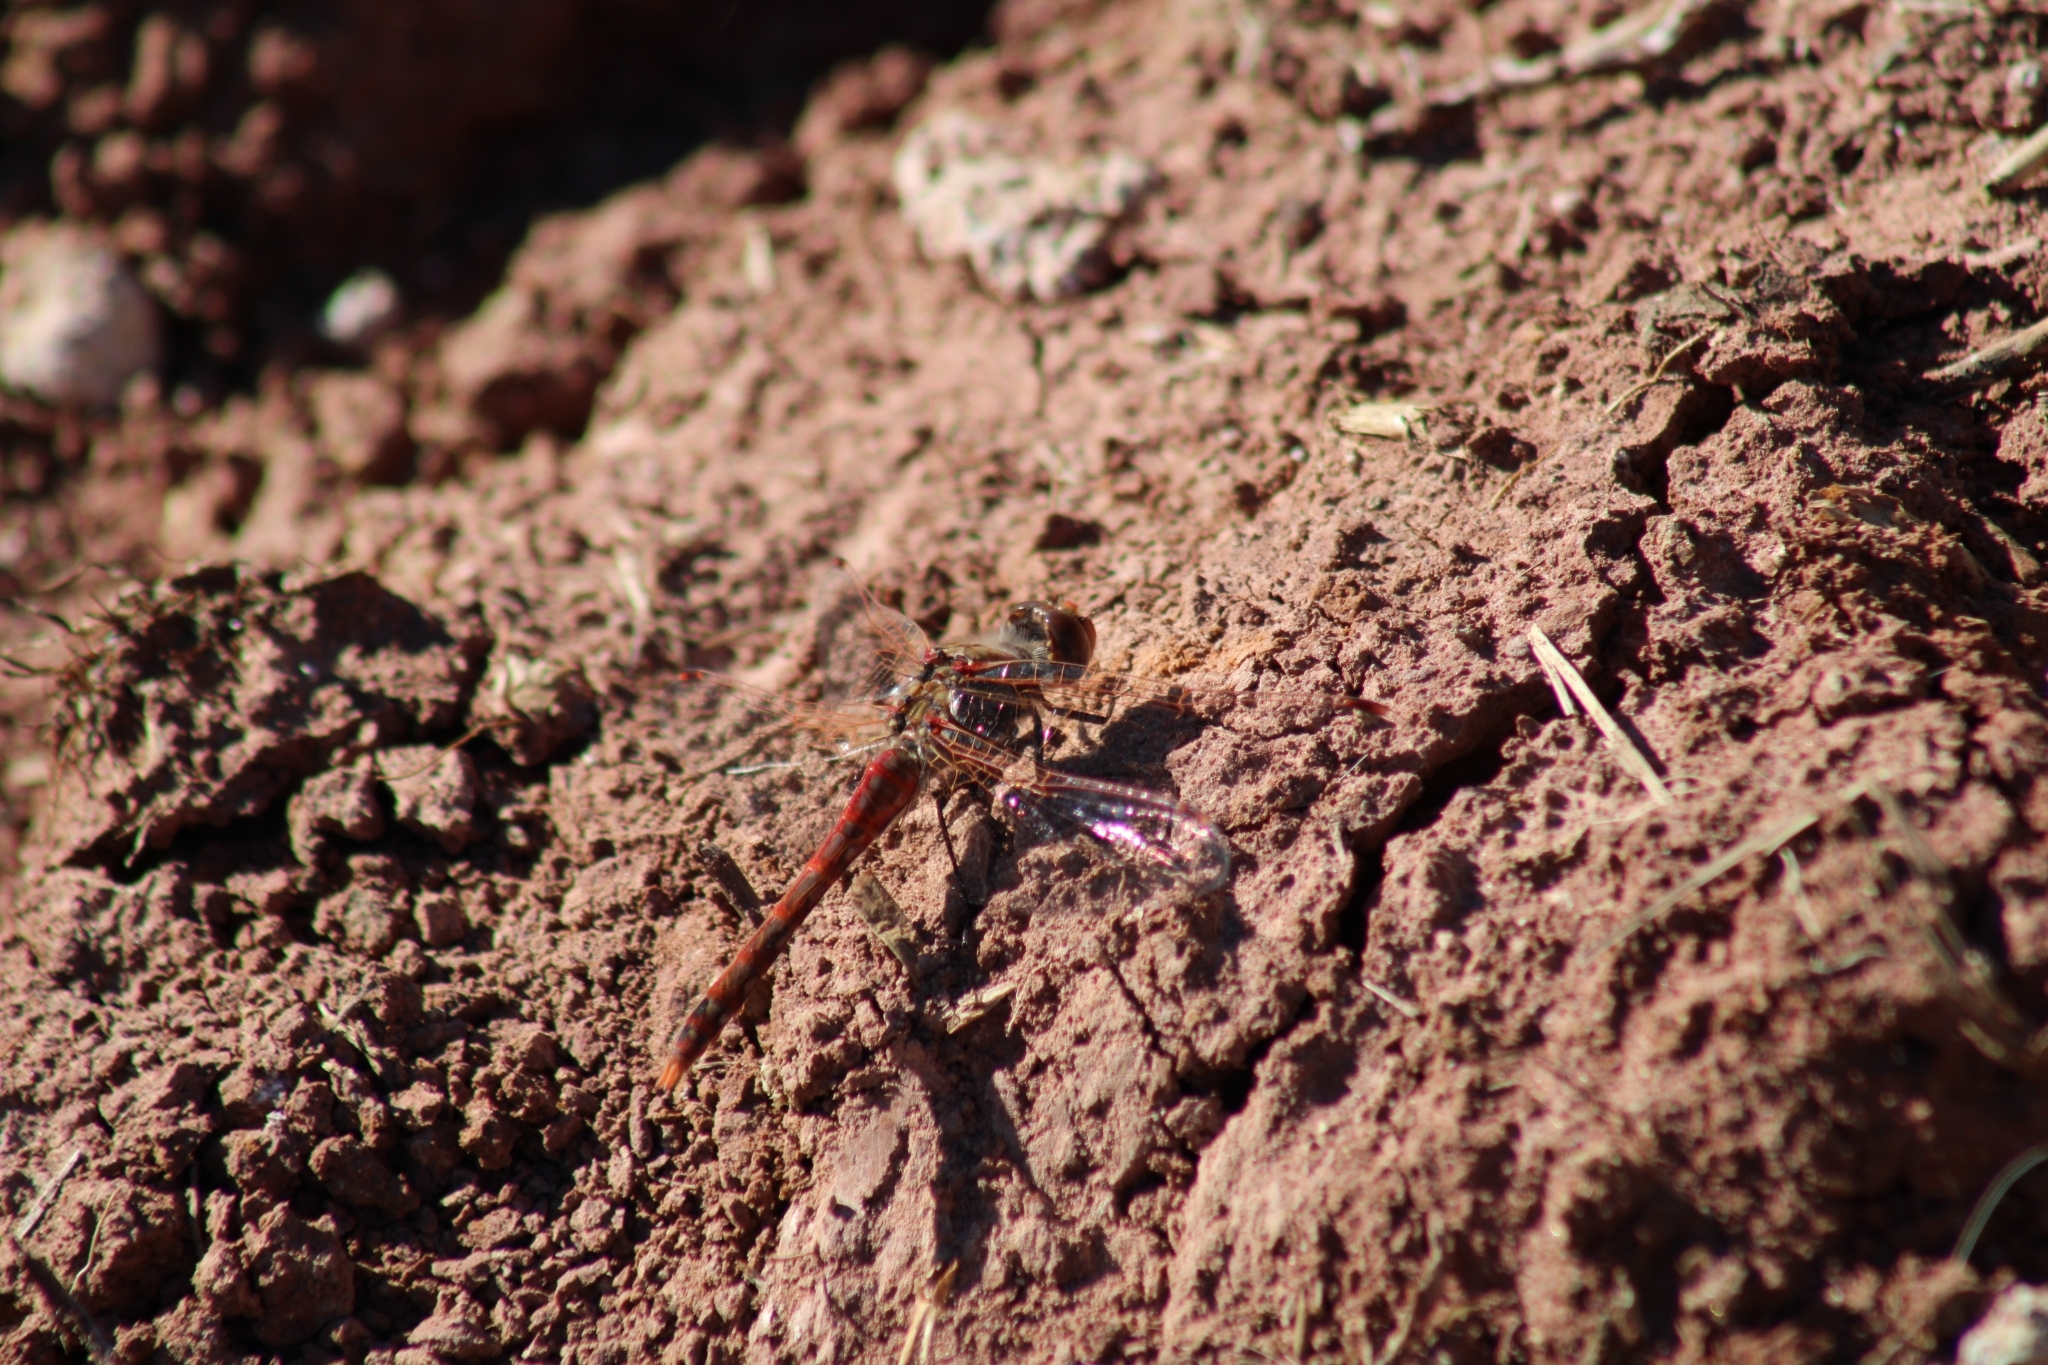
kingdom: Animalia
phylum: Arthropoda
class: Insecta
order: Odonata
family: Libellulidae
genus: Sympetrum
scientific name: Sympetrum corruptum
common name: Variegated meadowhawk
